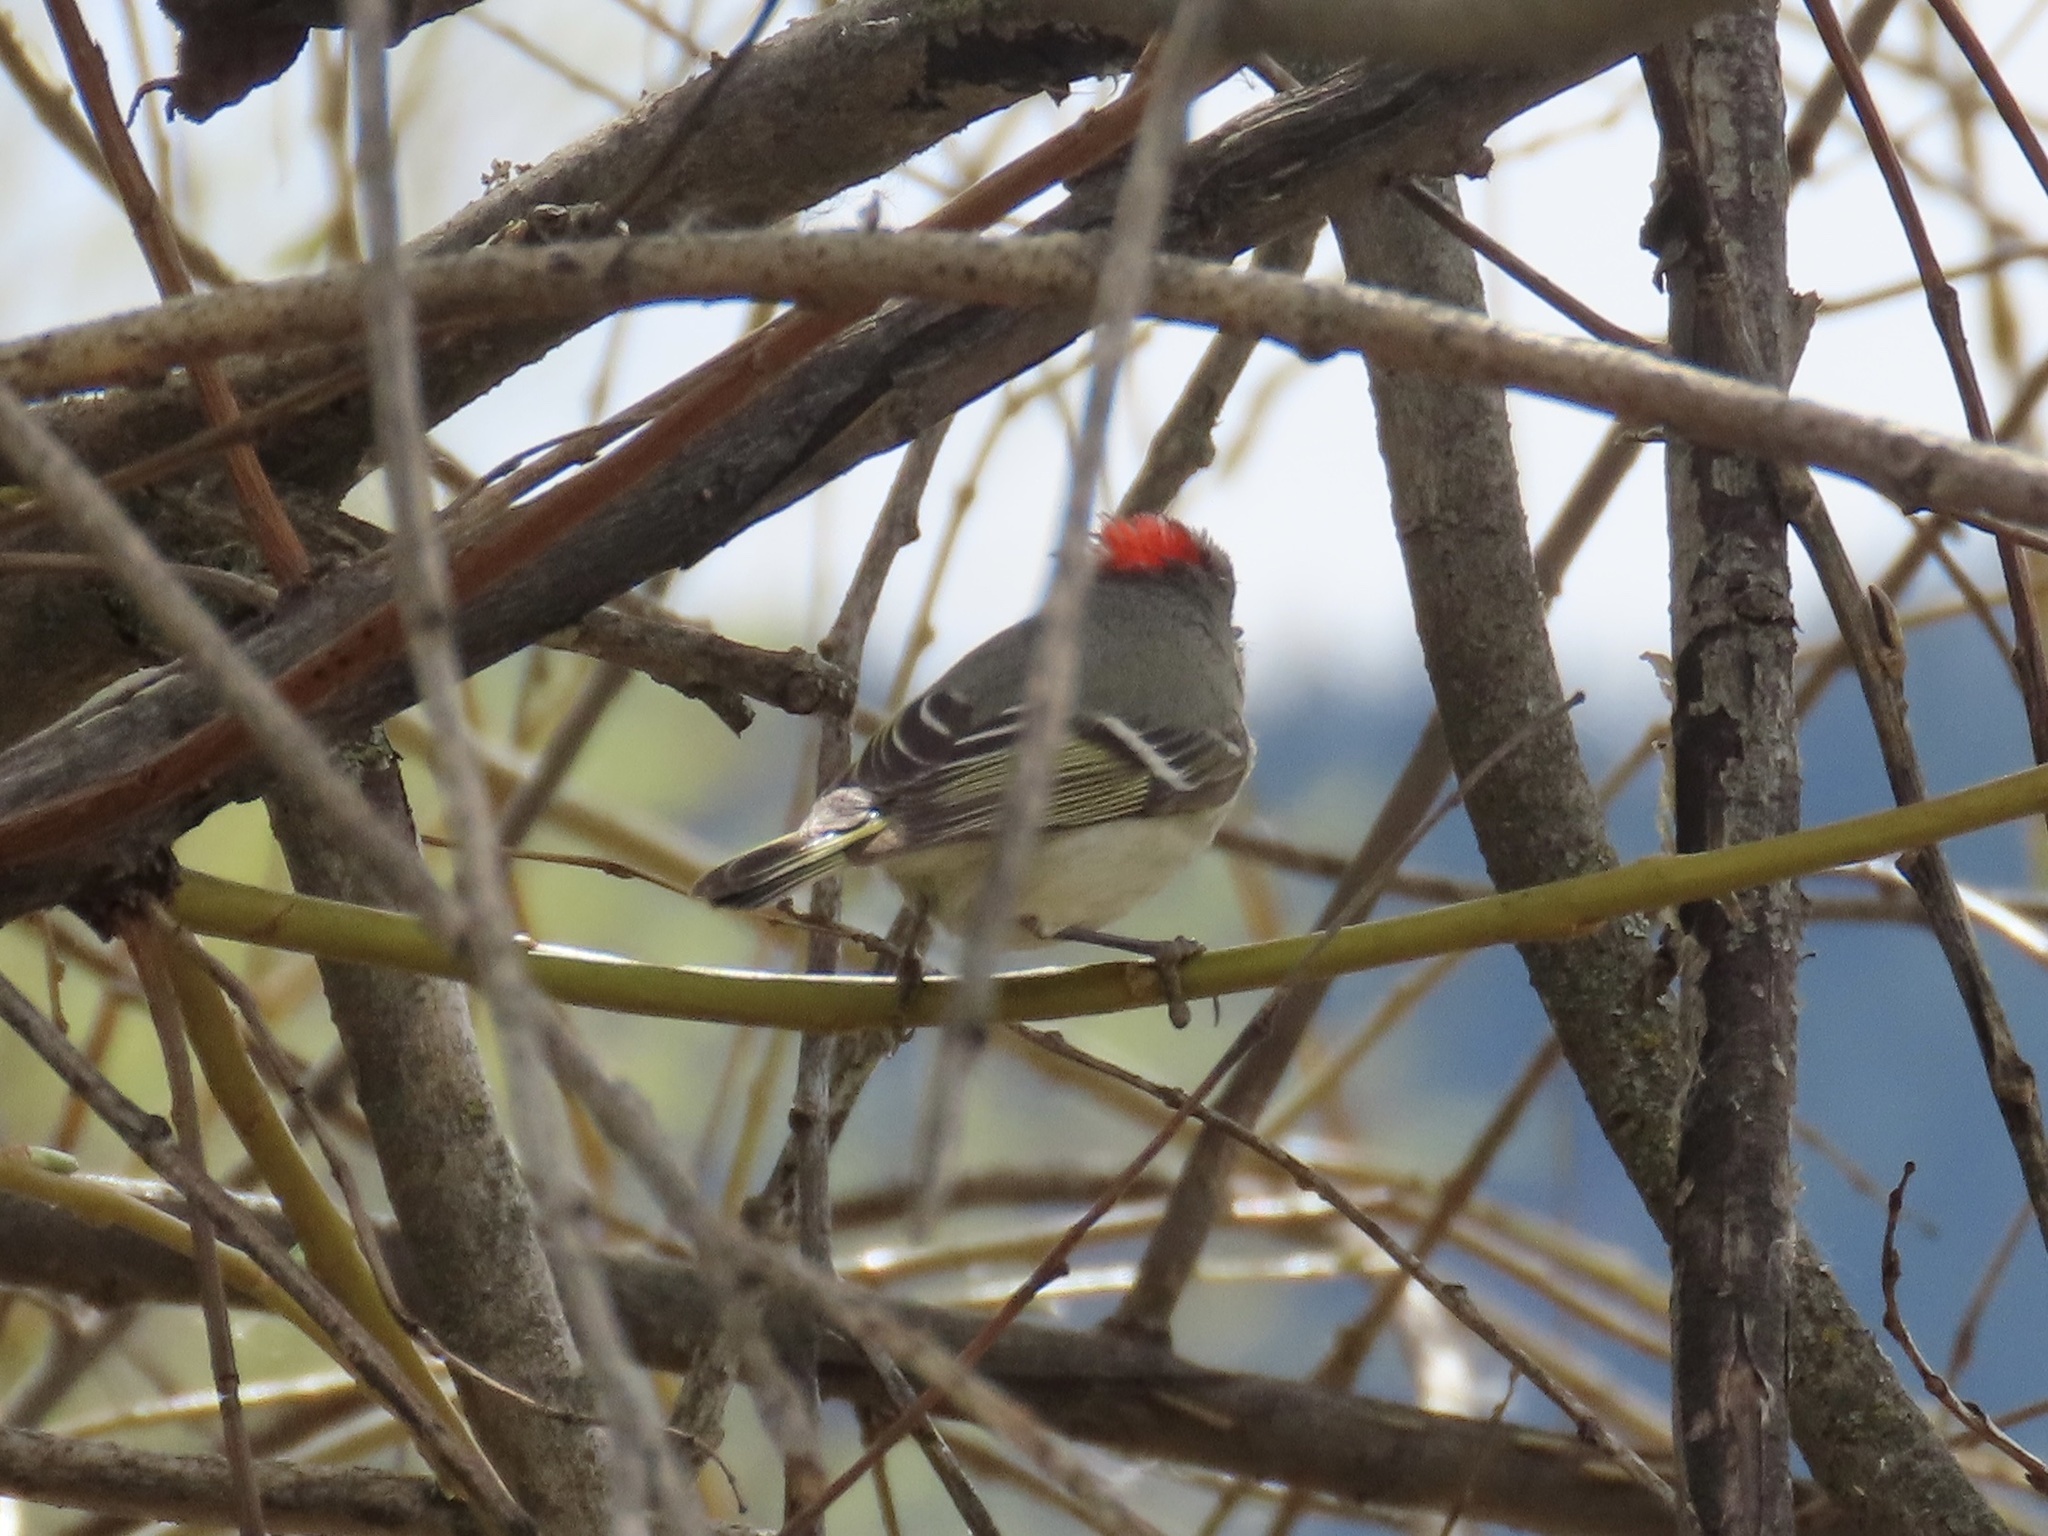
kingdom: Animalia
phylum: Chordata
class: Aves
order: Passeriformes
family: Regulidae
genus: Regulus
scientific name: Regulus calendula
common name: Ruby-crowned kinglet
